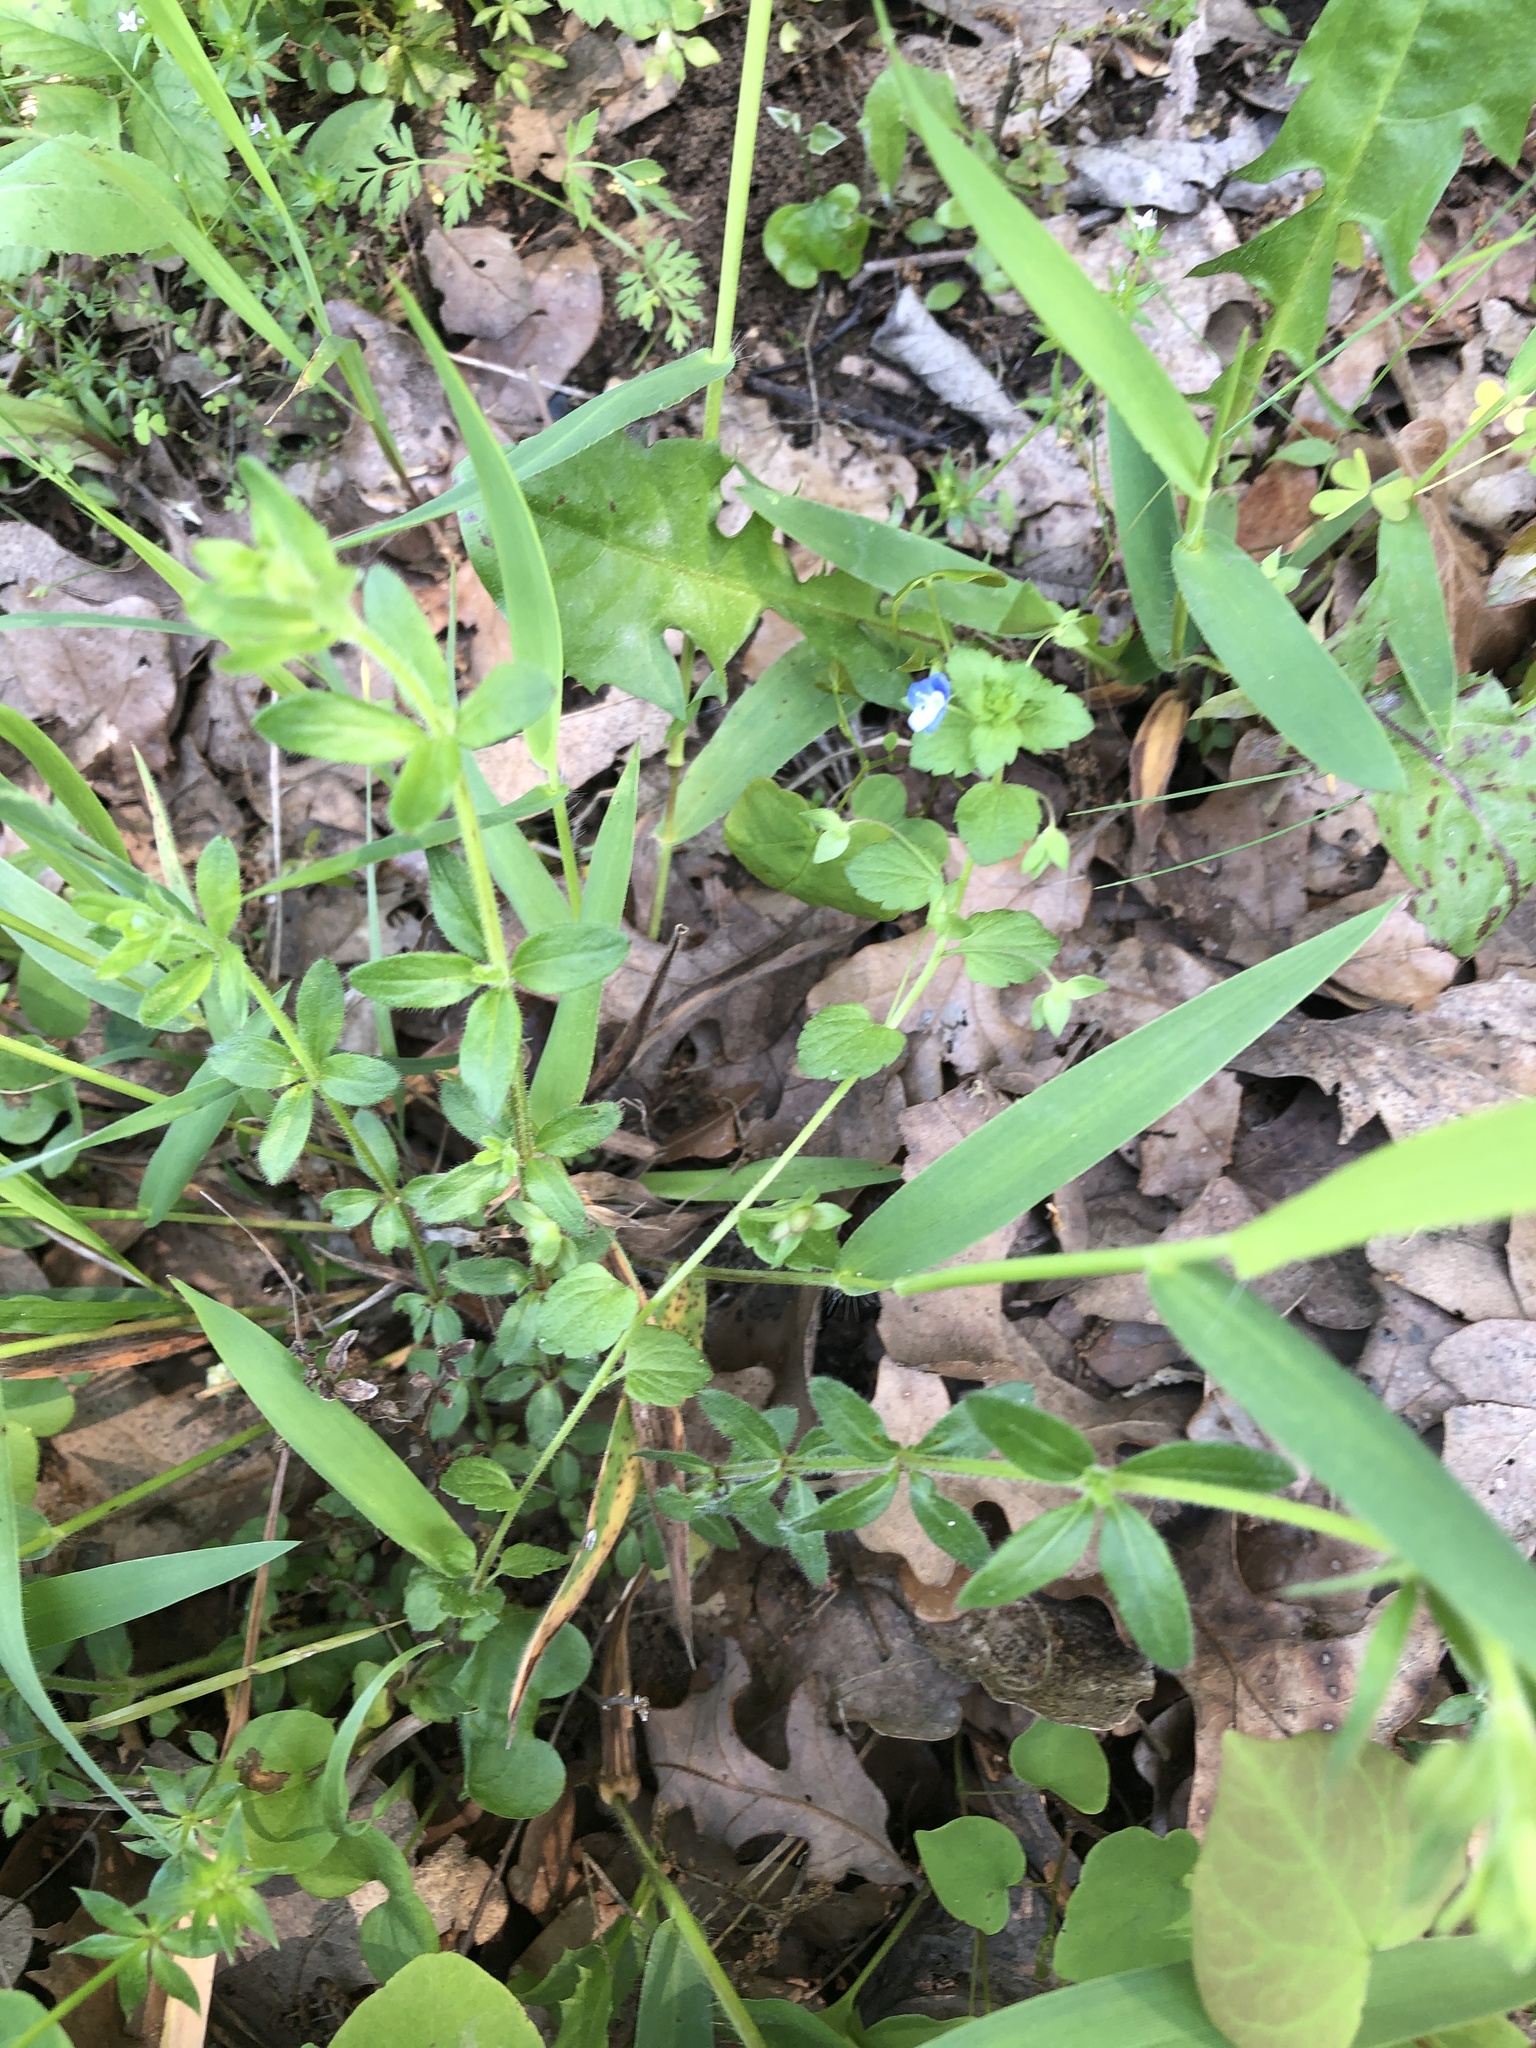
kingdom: Plantae
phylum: Tracheophyta
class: Magnoliopsida
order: Lamiales
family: Plantaginaceae
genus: Veronica
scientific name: Veronica persica
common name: Common field-speedwell
